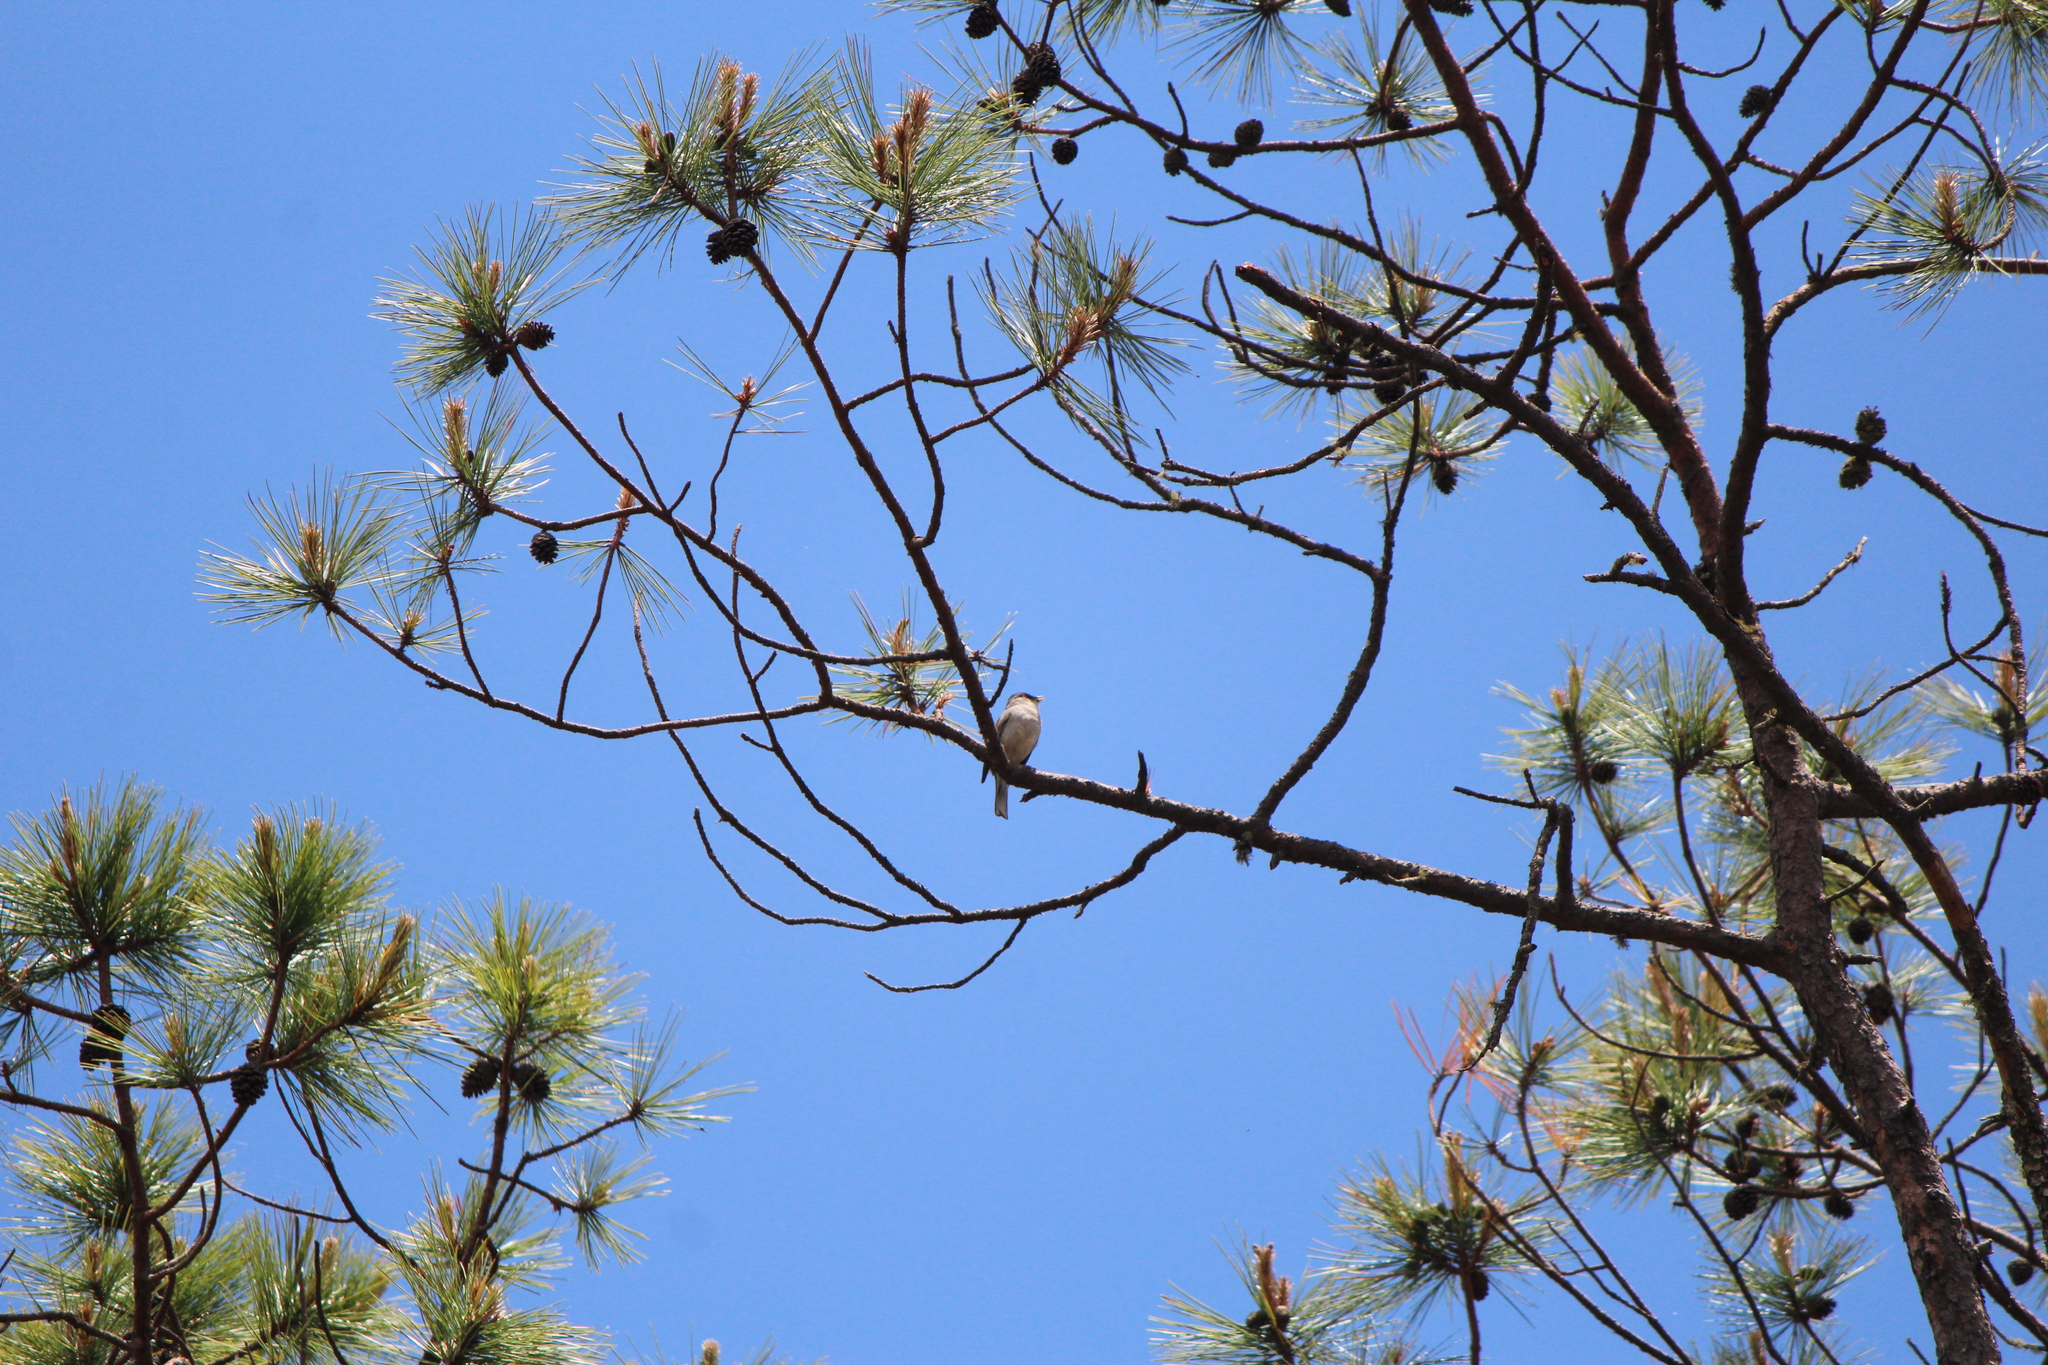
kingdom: Animalia
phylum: Chordata
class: Aves
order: Passeriformes
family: Passerellidae
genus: Junco
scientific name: Junco phaeonotus
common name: Yellow-eyed junco
